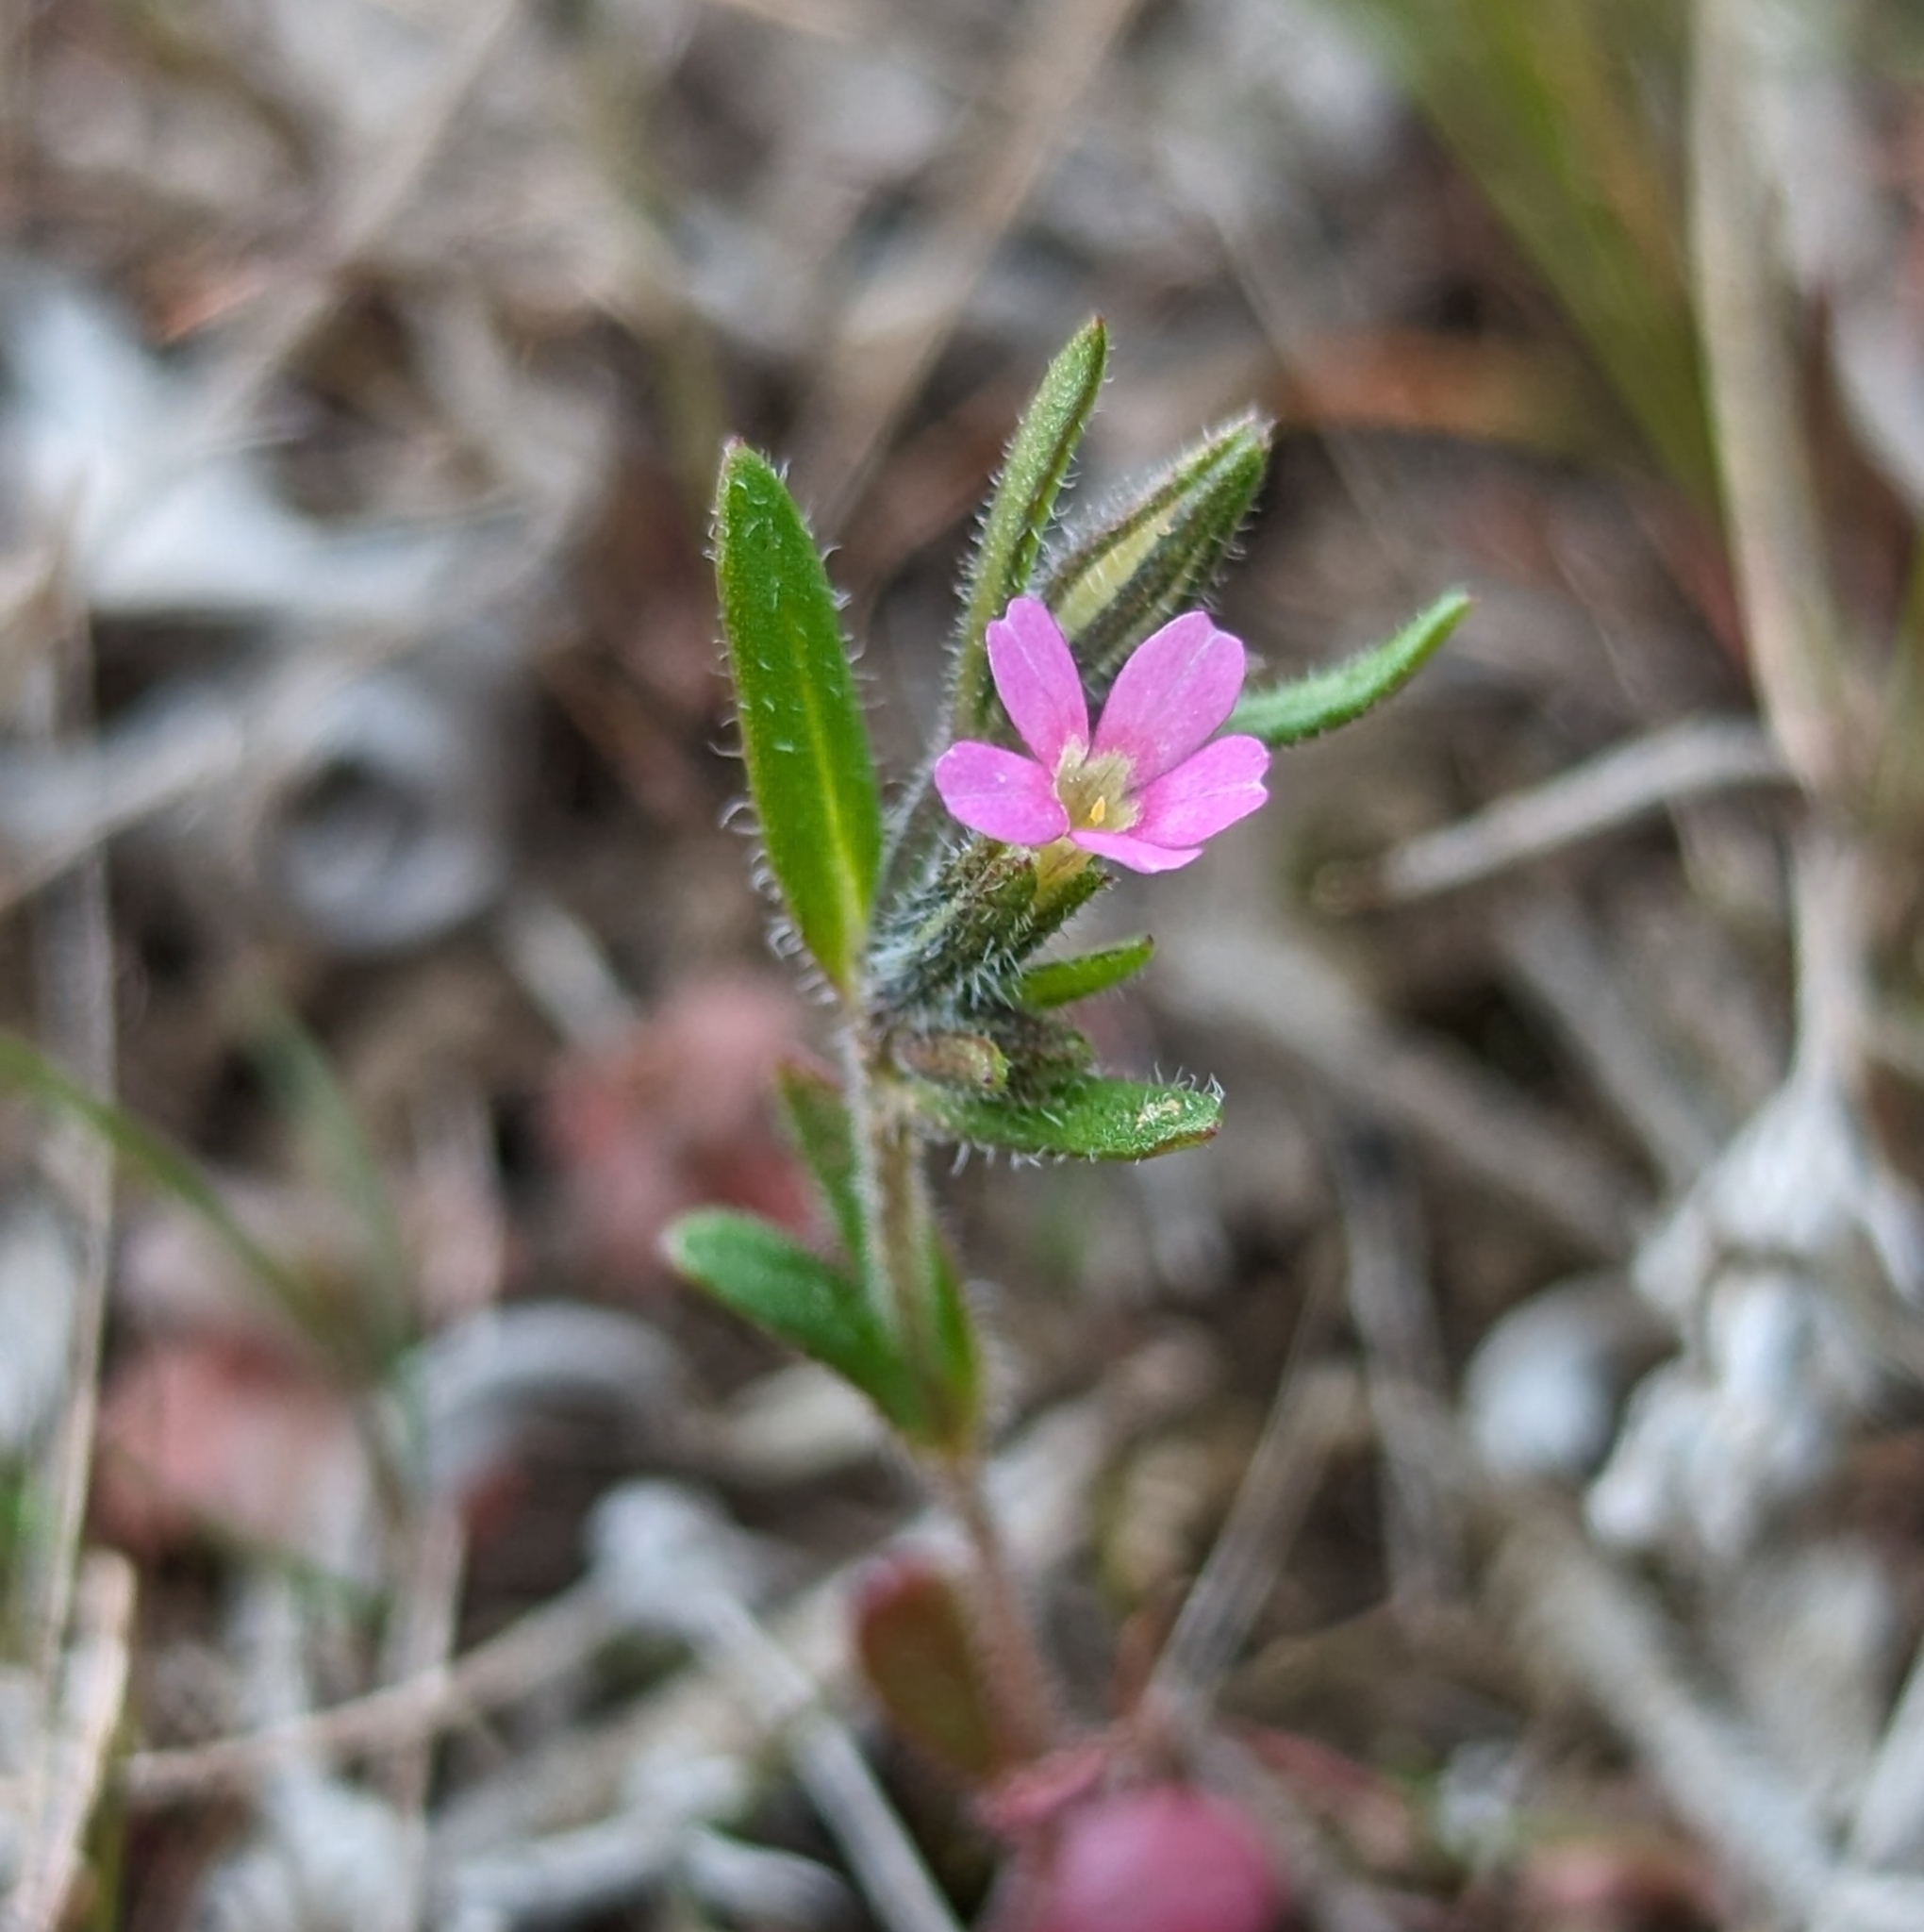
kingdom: Plantae
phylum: Tracheophyta
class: Magnoliopsida
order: Ericales
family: Polemoniaceae
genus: Phlox
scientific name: Phlox gracilis
